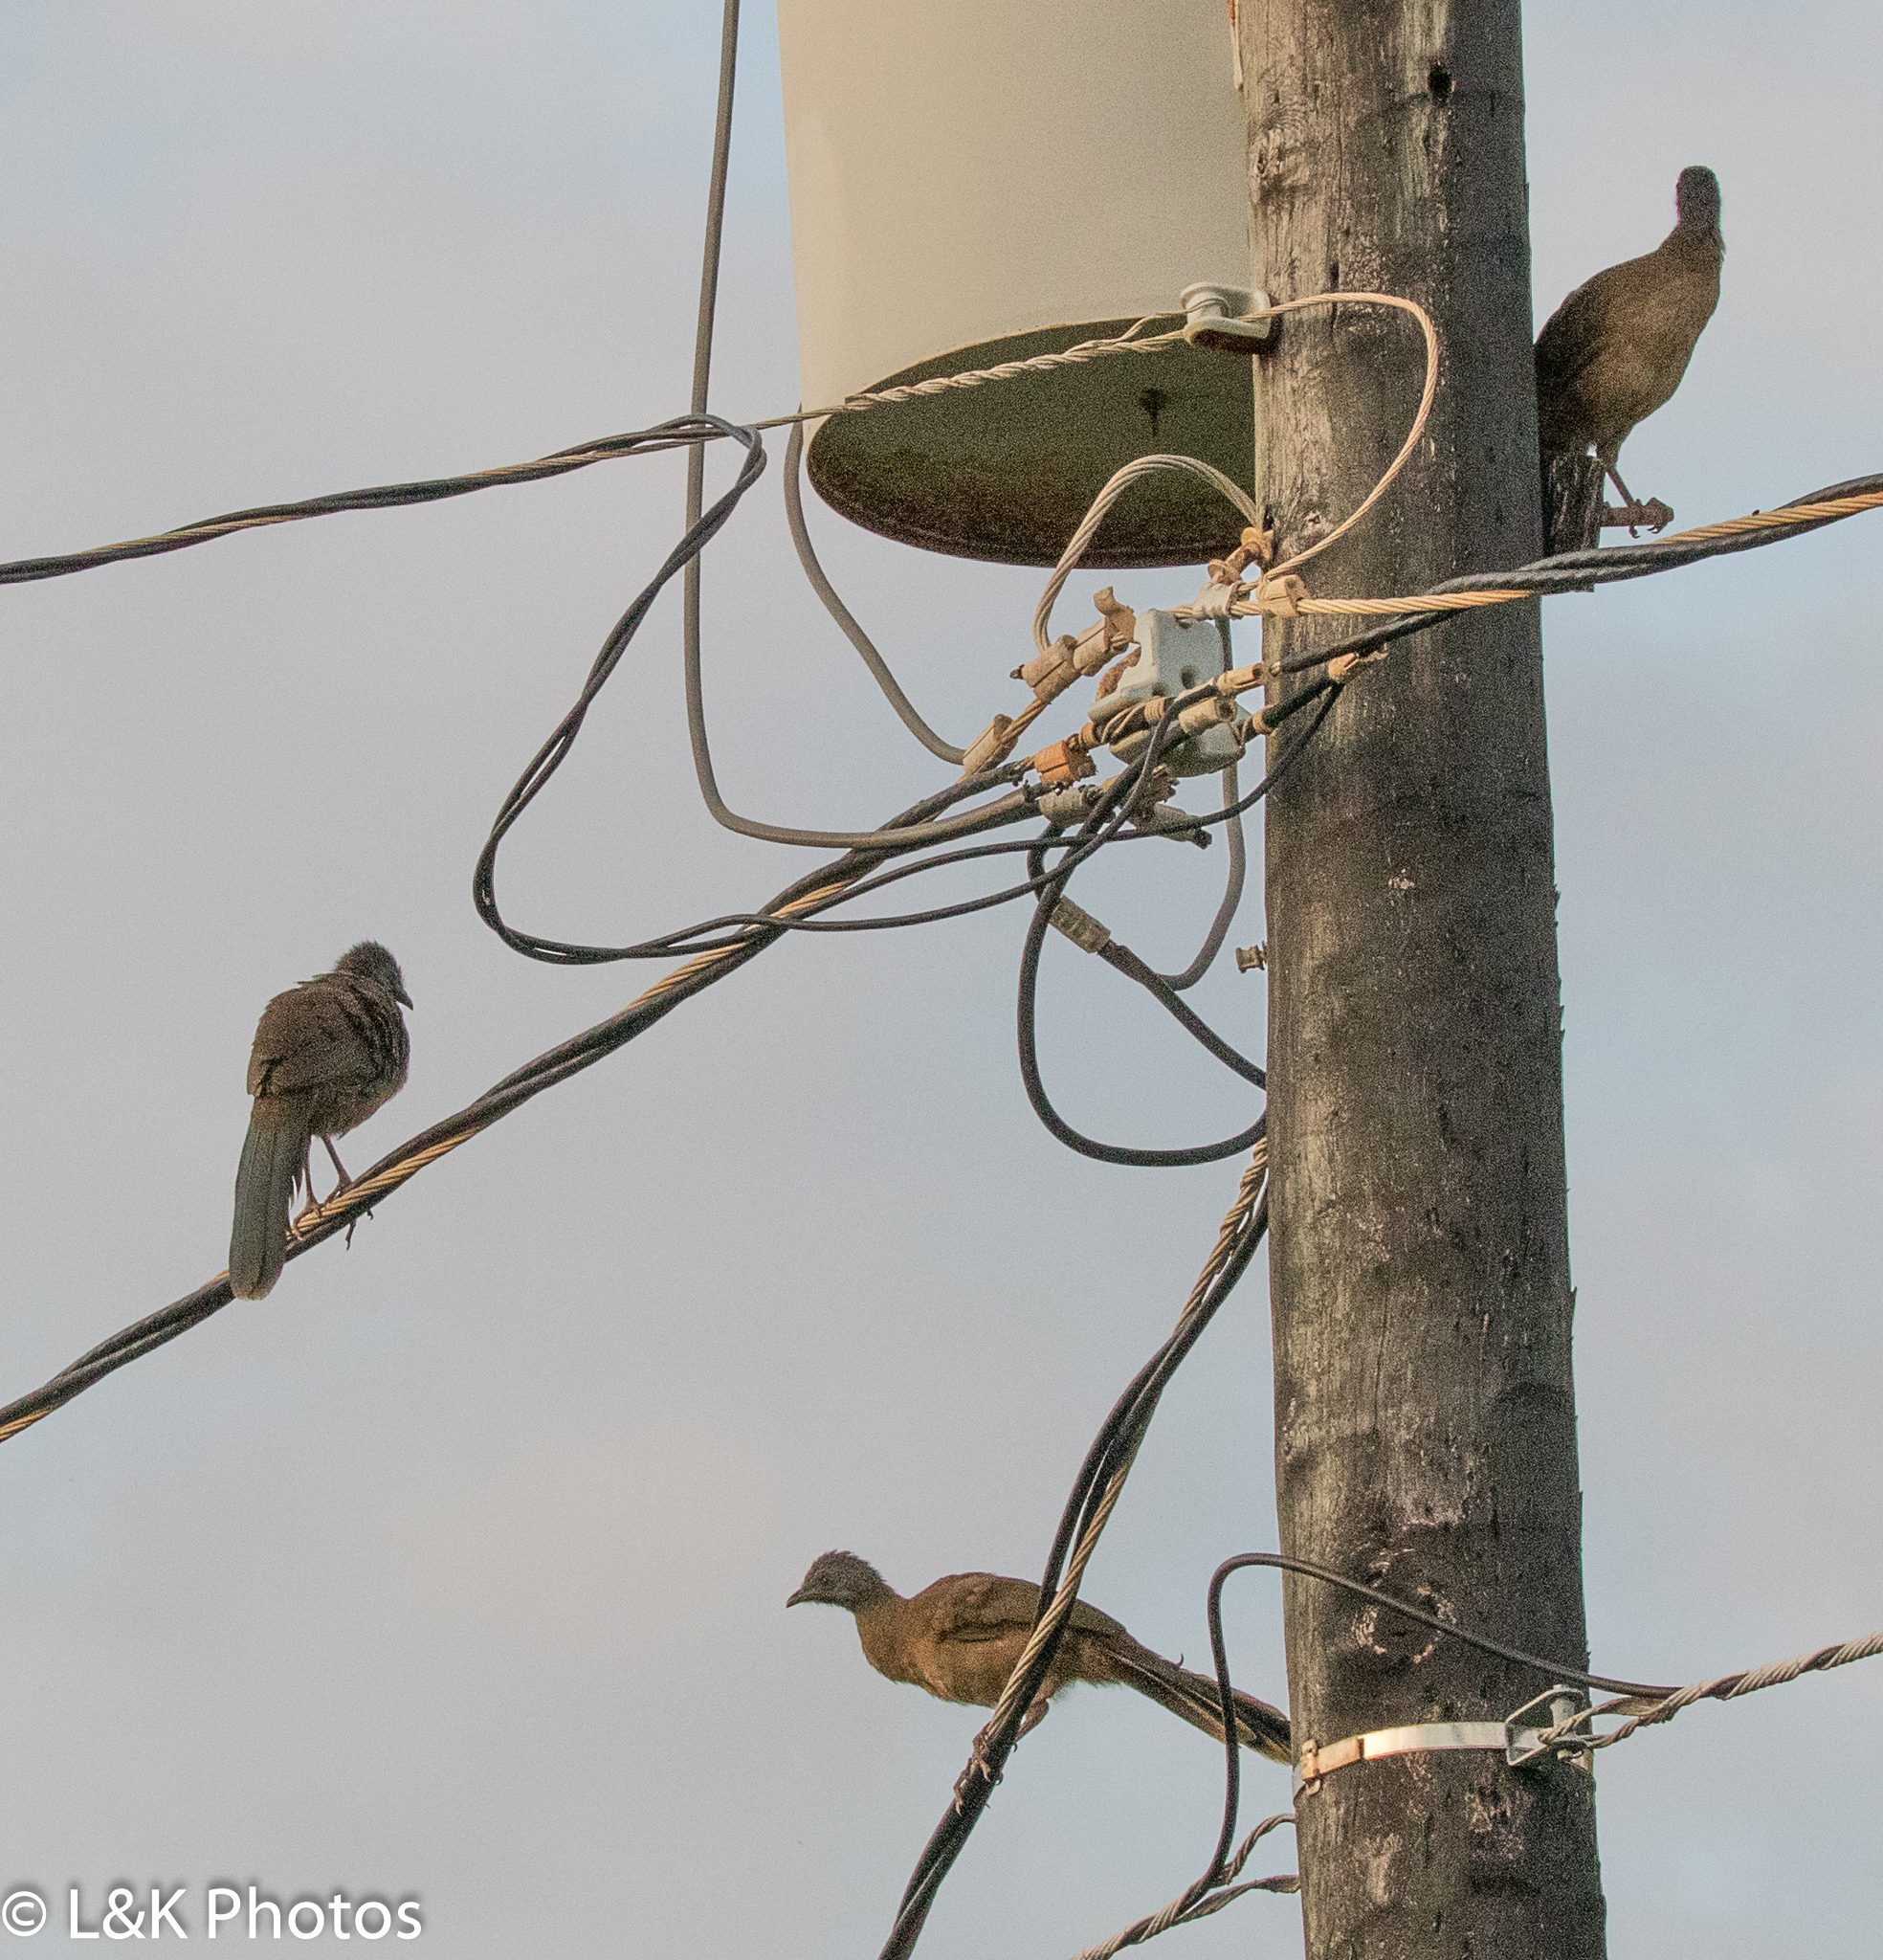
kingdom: Animalia
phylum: Chordata
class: Aves
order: Galliformes
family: Cracidae
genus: Ortalis
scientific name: Ortalis vetula
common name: Plain chachalaca
